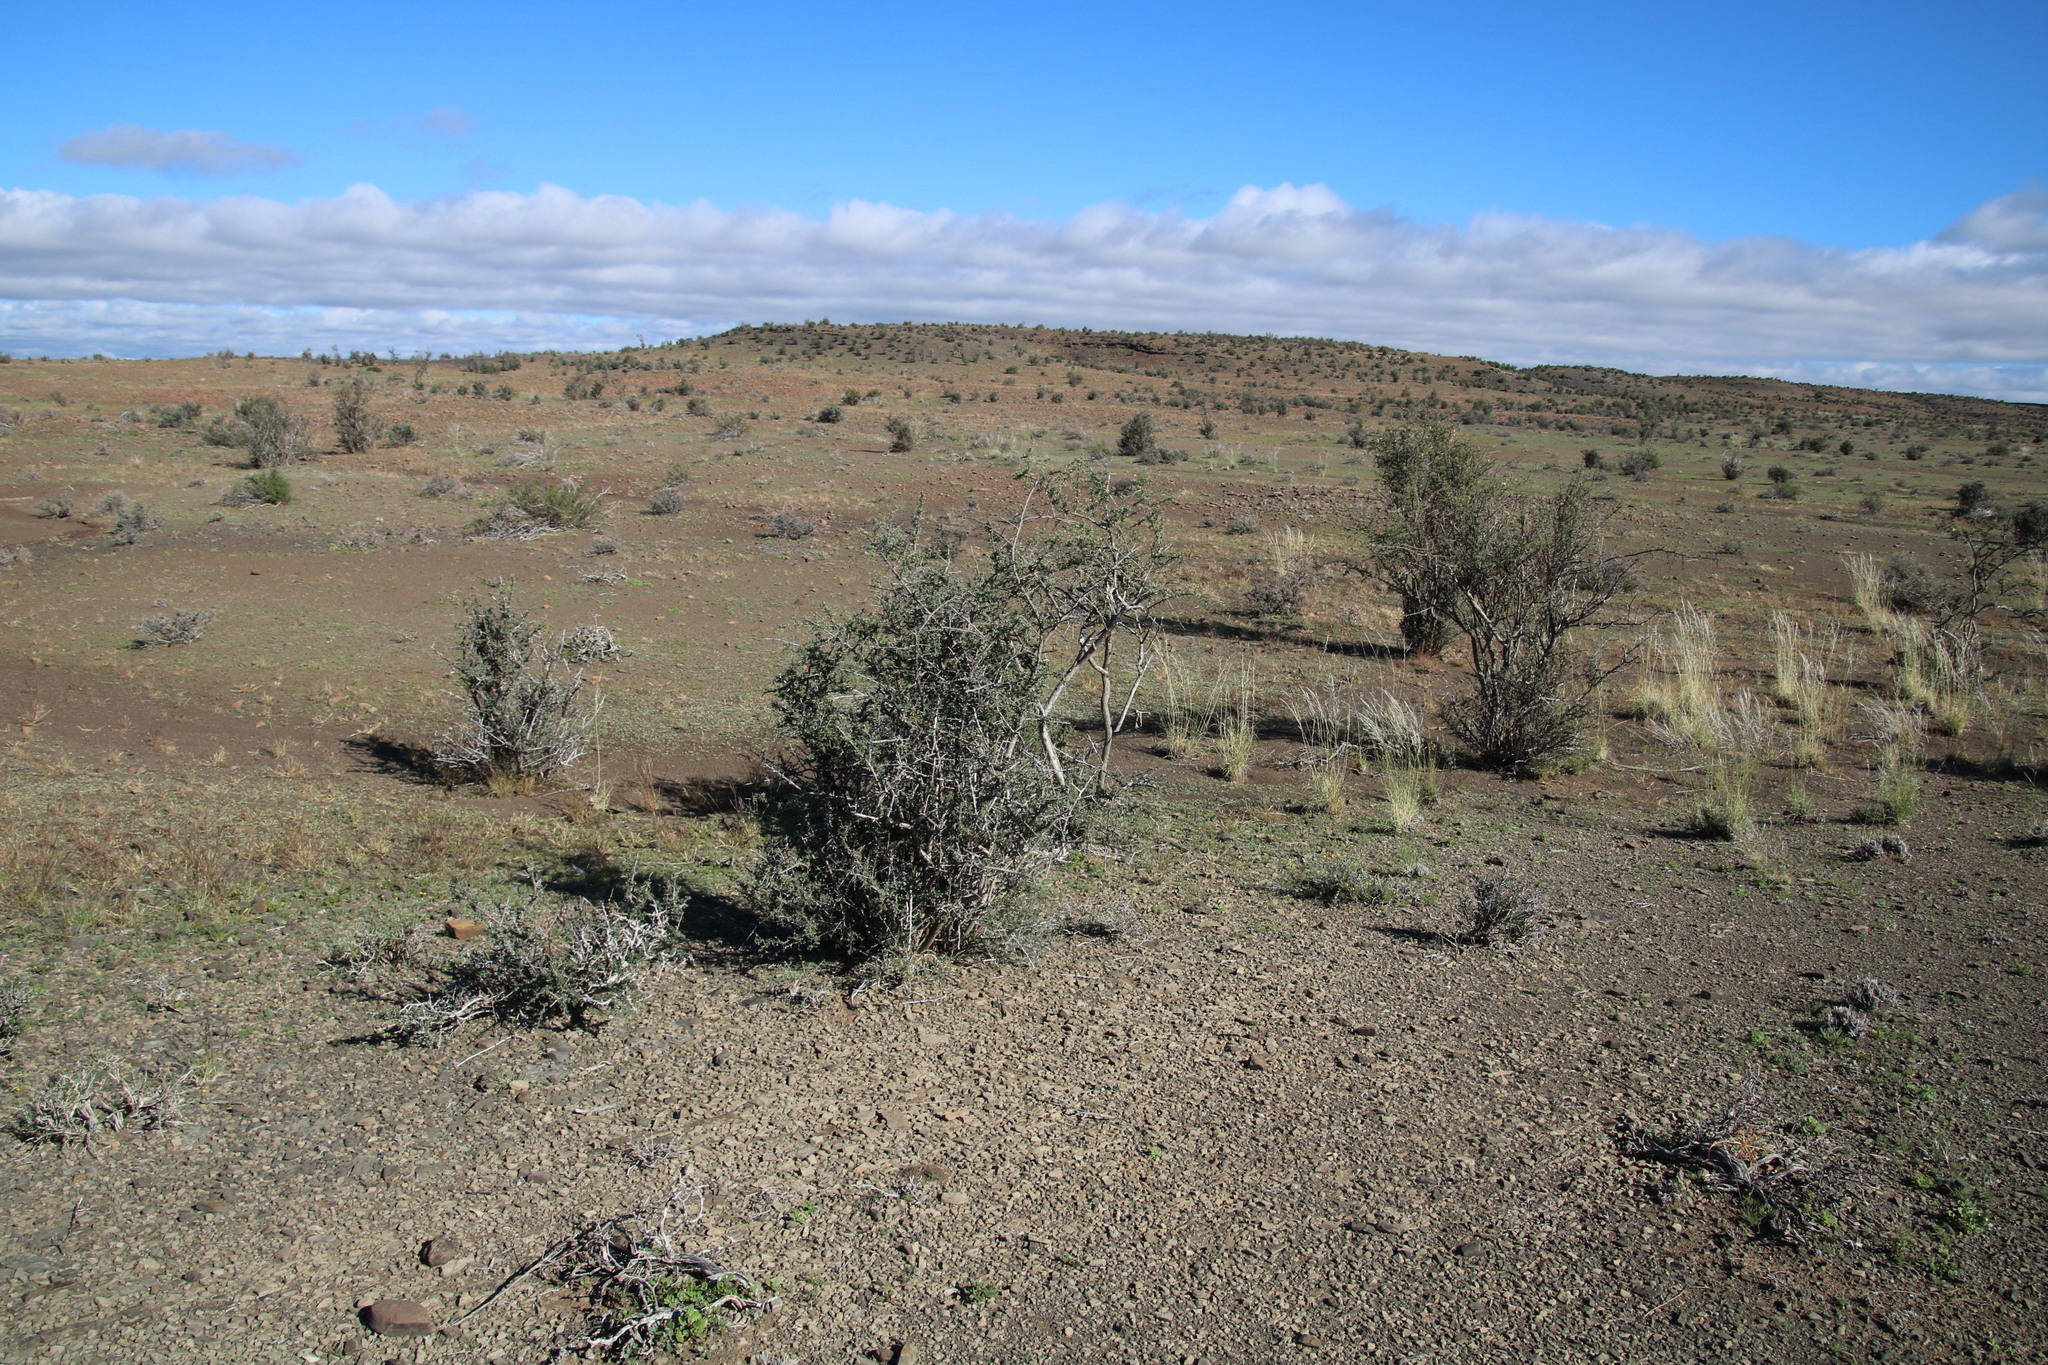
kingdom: Plantae
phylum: Tracheophyta
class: Magnoliopsida
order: Lamiales
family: Bignoniaceae
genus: Rhigozum
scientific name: Rhigozum obovatum
